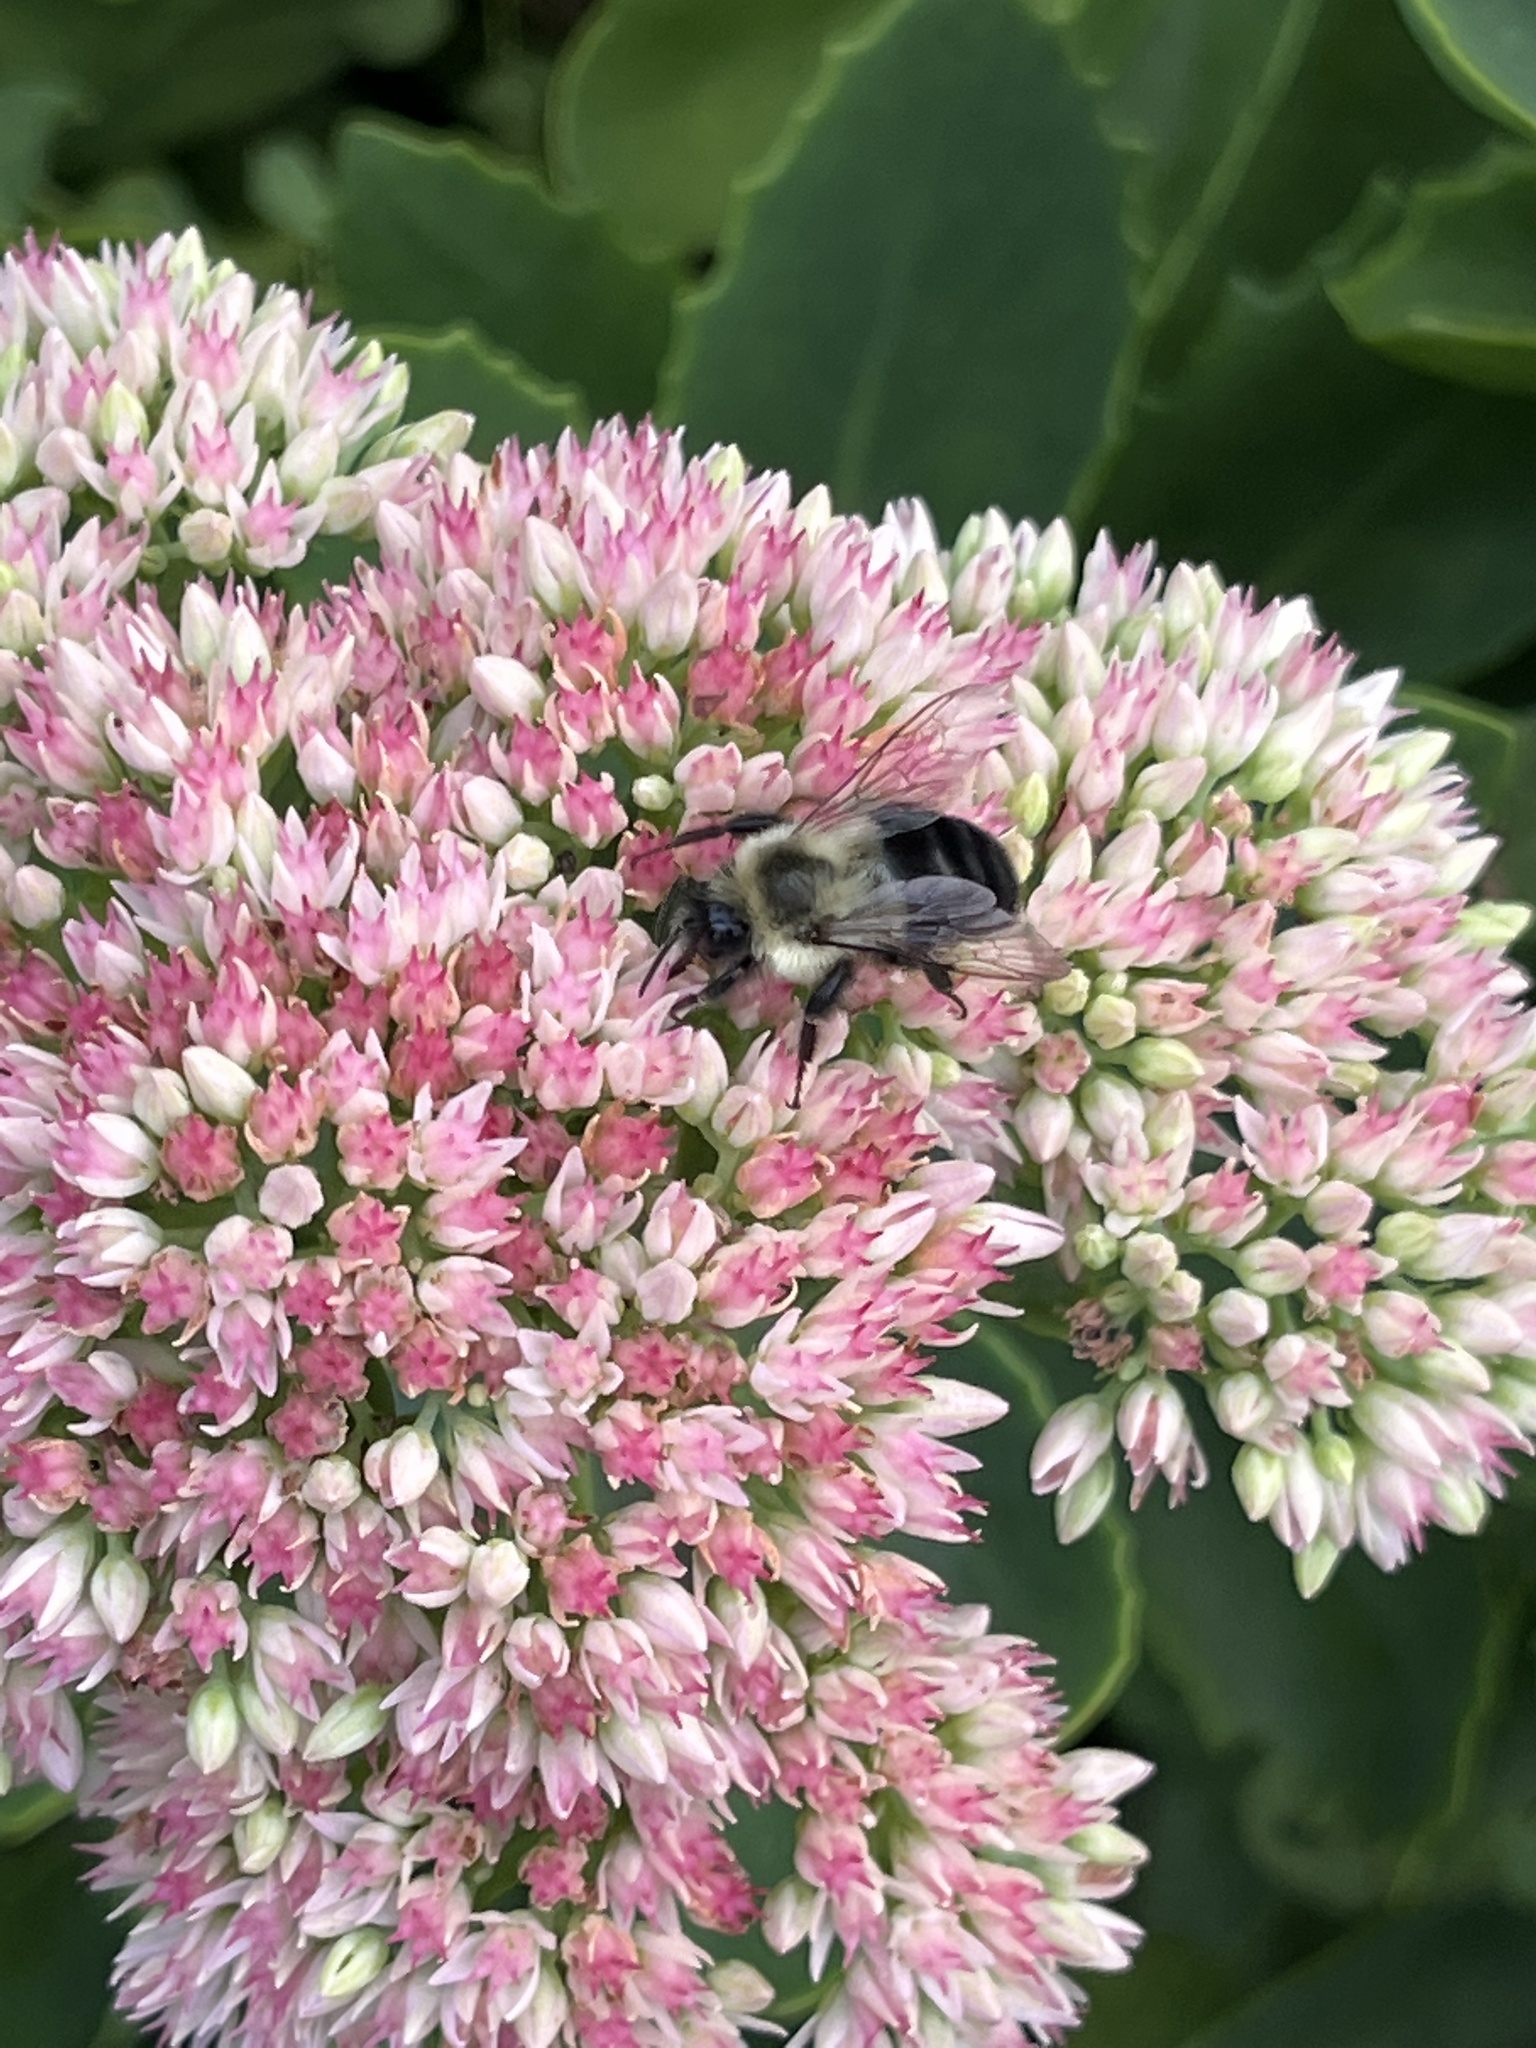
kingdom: Animalia
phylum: Arthropoda
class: Insecta
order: Hymenoptera
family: Apidae
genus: Bombus
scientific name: Bombus impatiens
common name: Common eastern bumble bee
